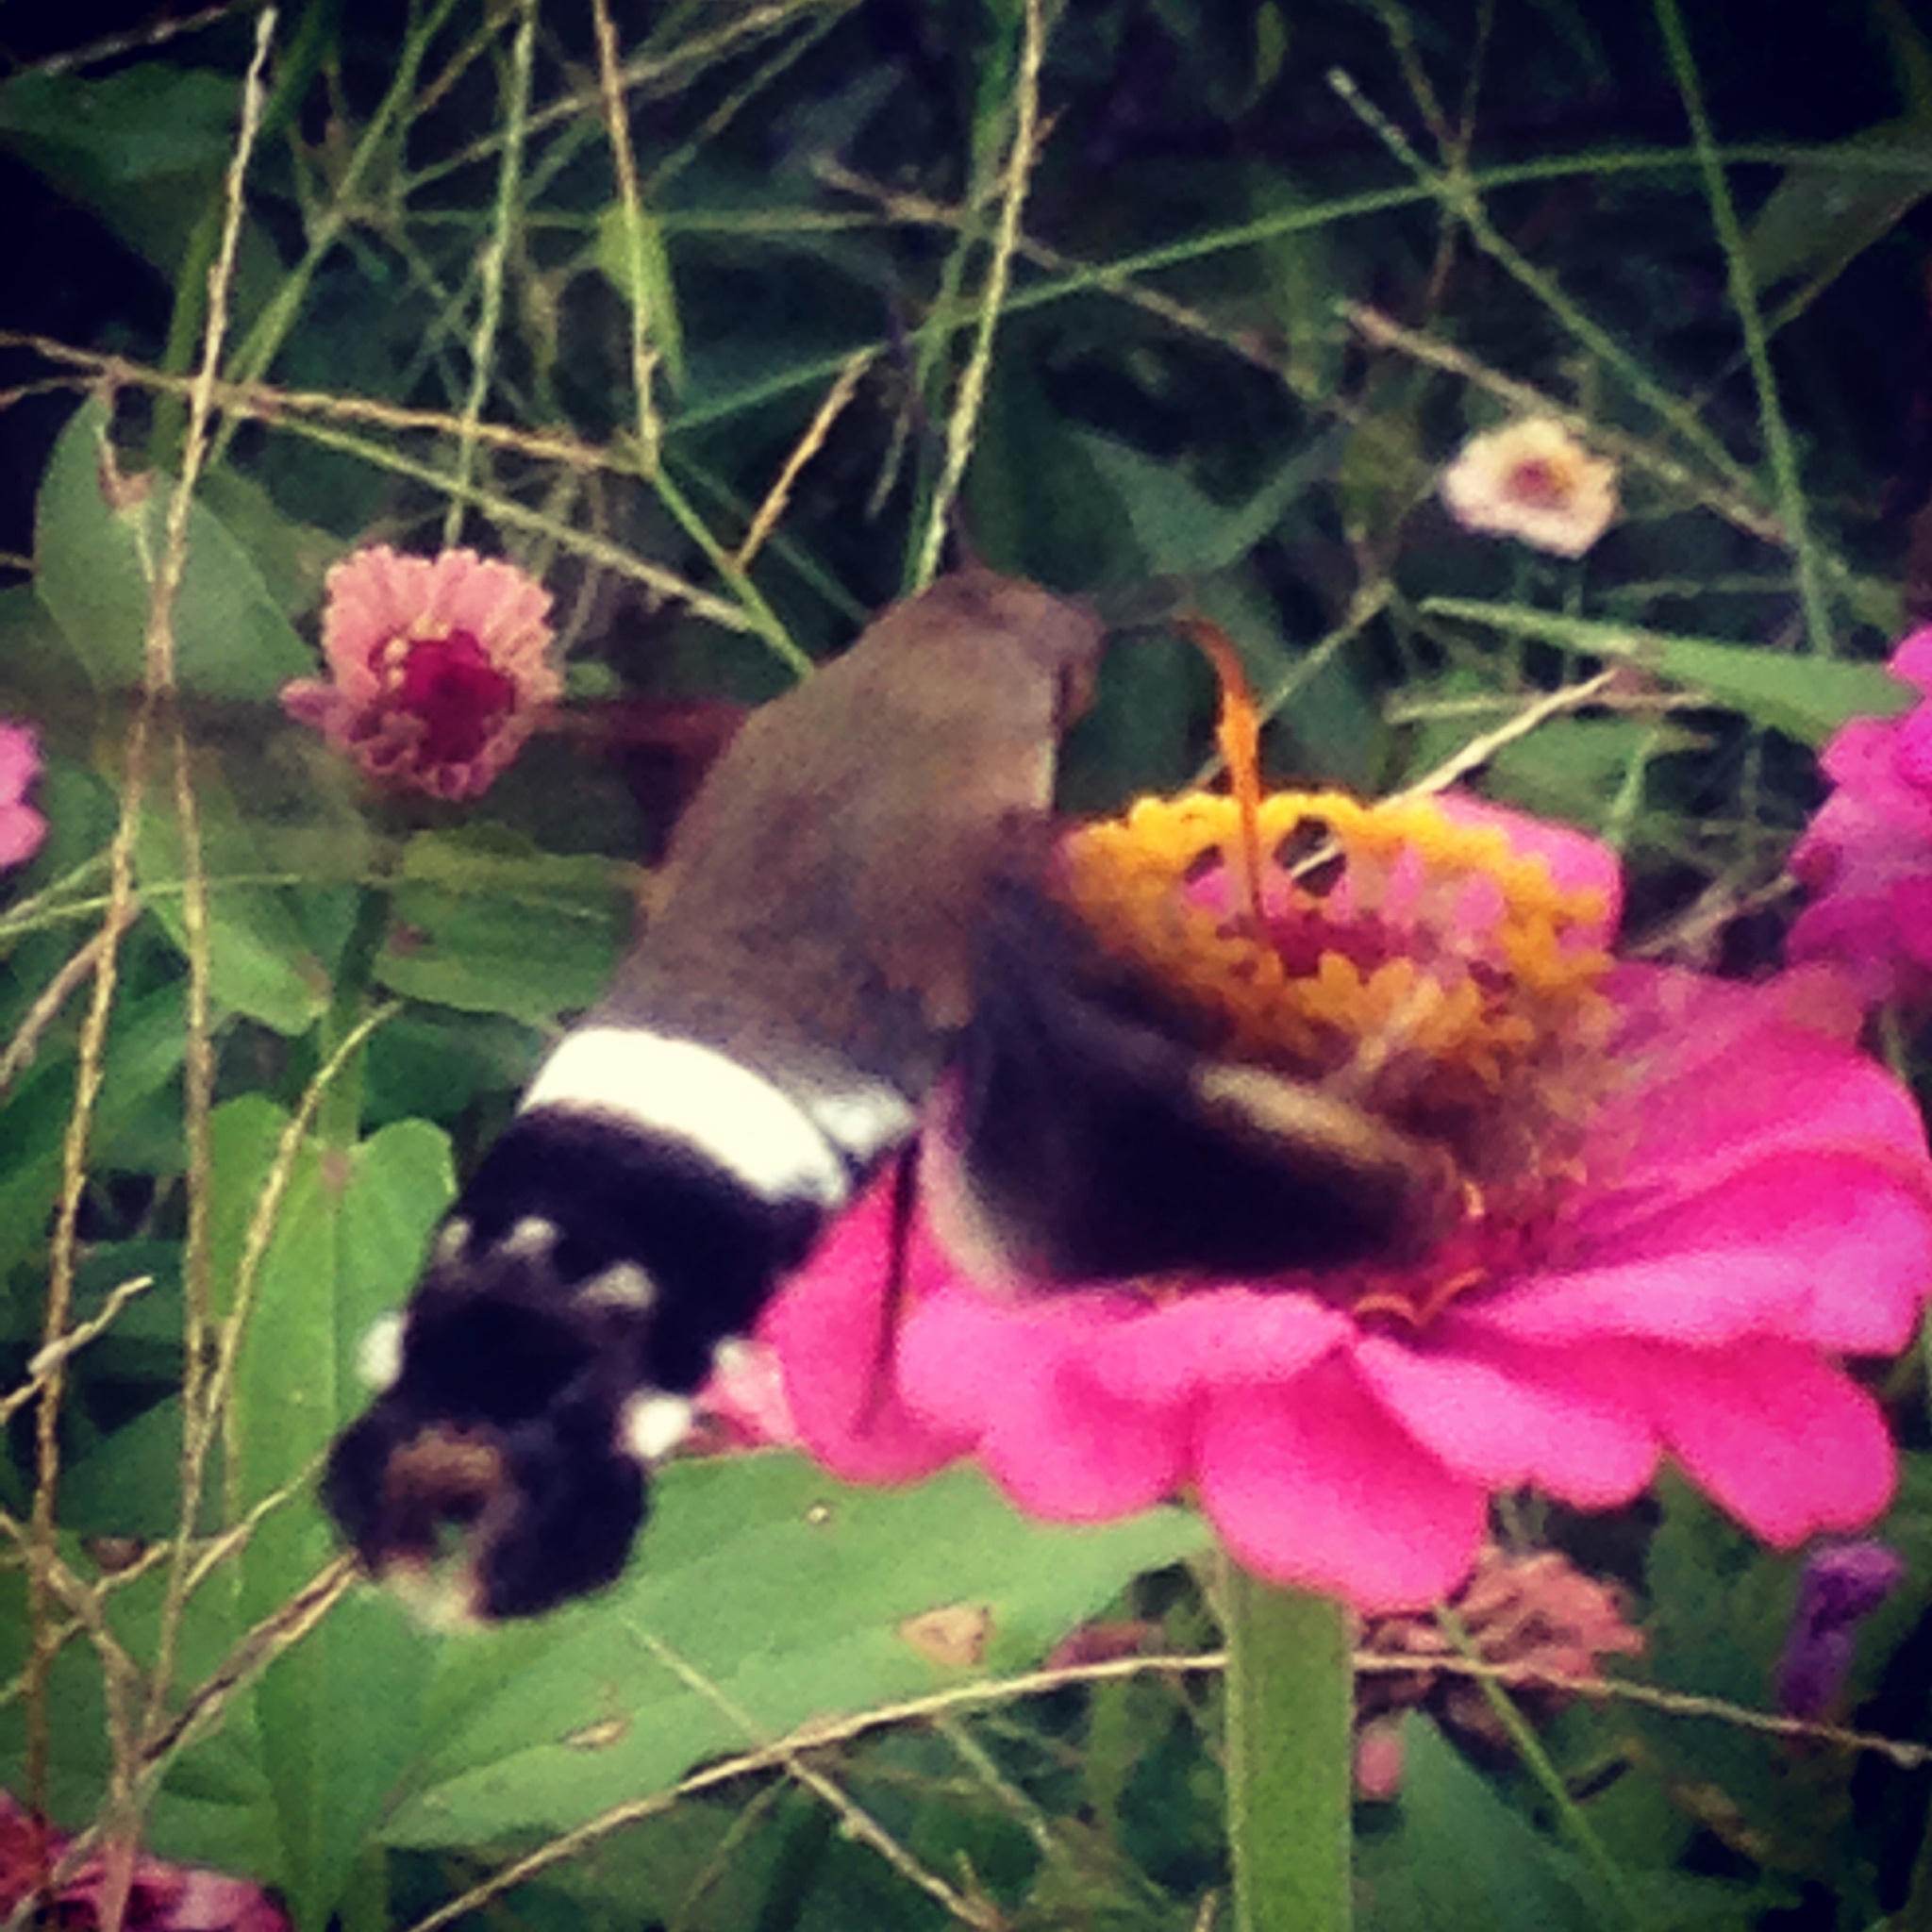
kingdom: Animalia
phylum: Arthropoda
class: Insecta
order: Lepidoptera
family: Sphingidae
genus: Aellopos
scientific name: Aellopos titan
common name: Titan sphinx
